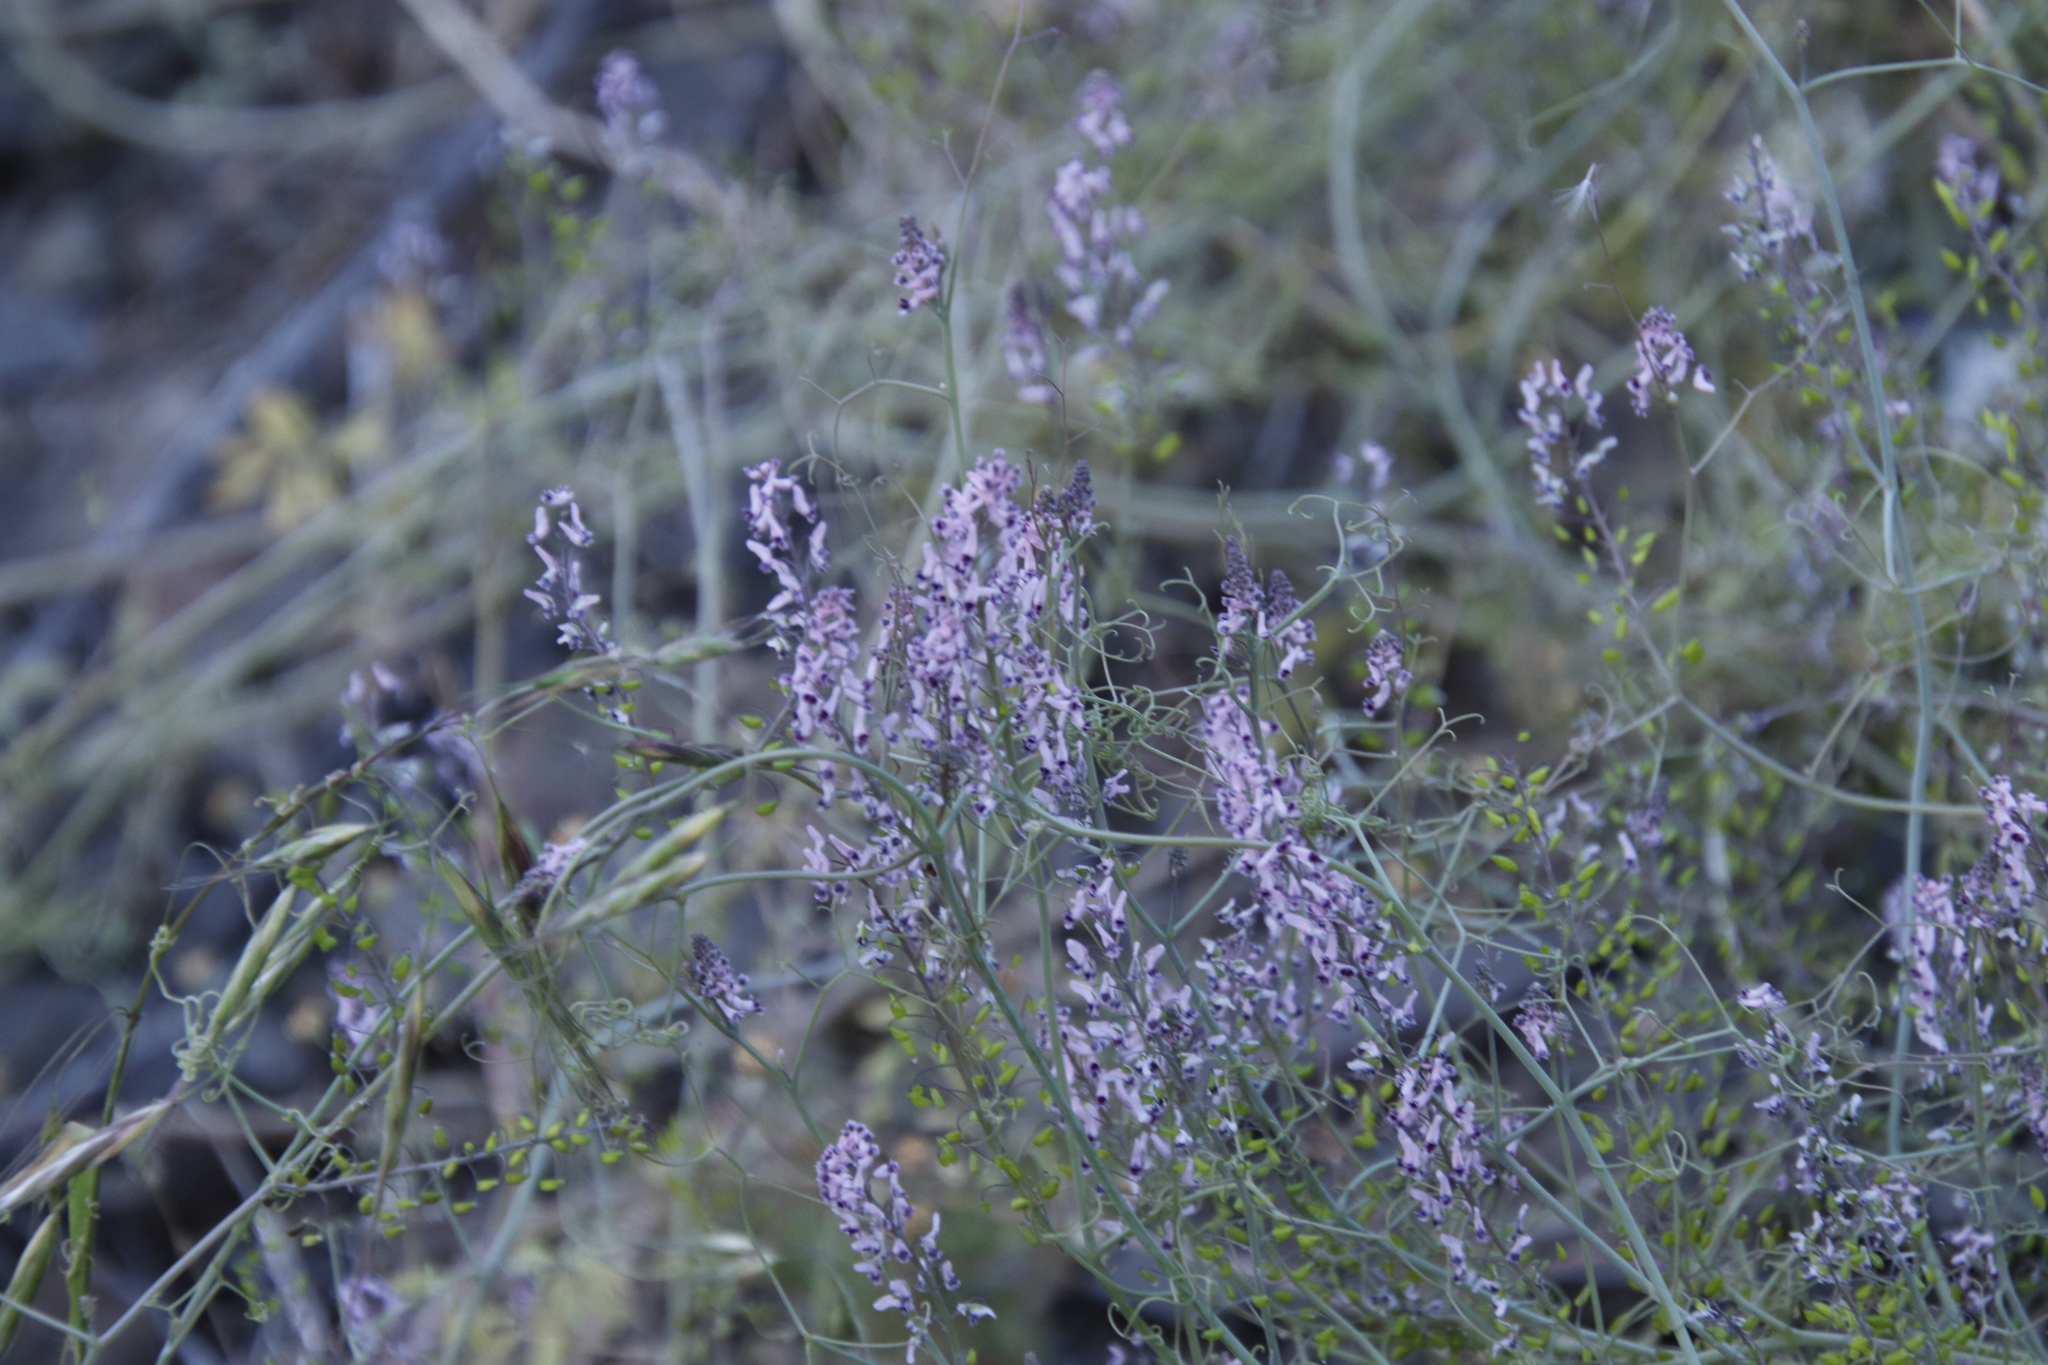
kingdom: Plantae
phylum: Tracheophyta
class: Magnoliopsida
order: Ranunculales
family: Papaveraceae
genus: Trigonocapnos
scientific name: Trigonocapnos lichtensteinii
